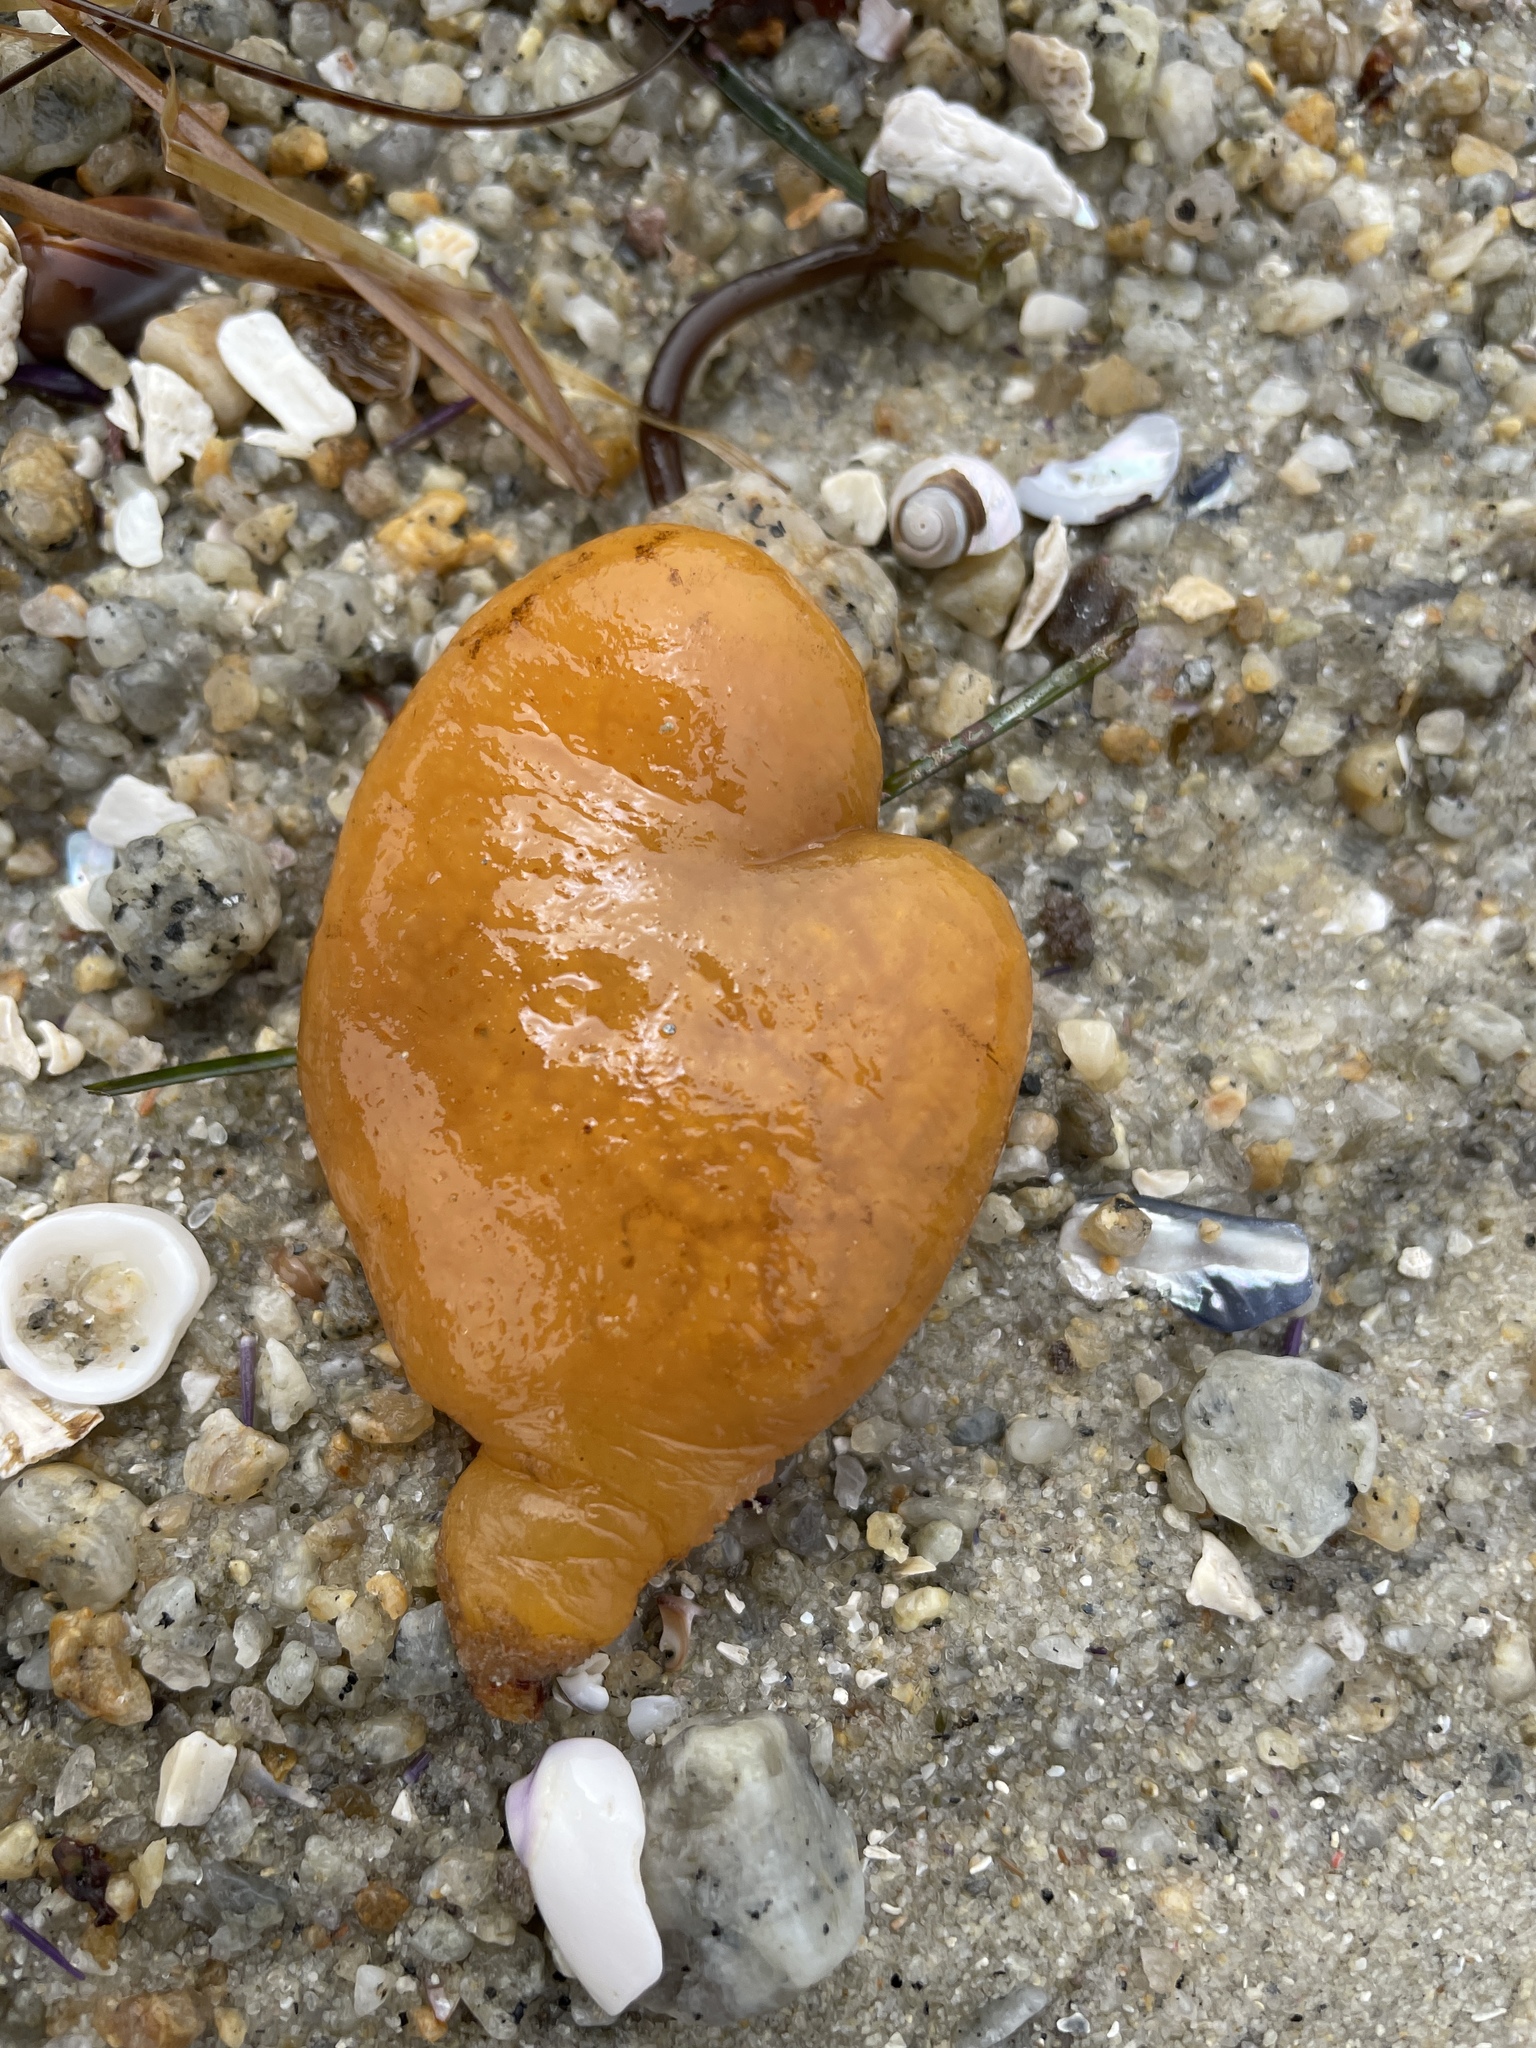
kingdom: Animalia
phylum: Chordata
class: Ascidiacea
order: Aplousobranchia
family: Polyclinidae
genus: Aplidium
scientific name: Aplidium californicum
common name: Sea pork
